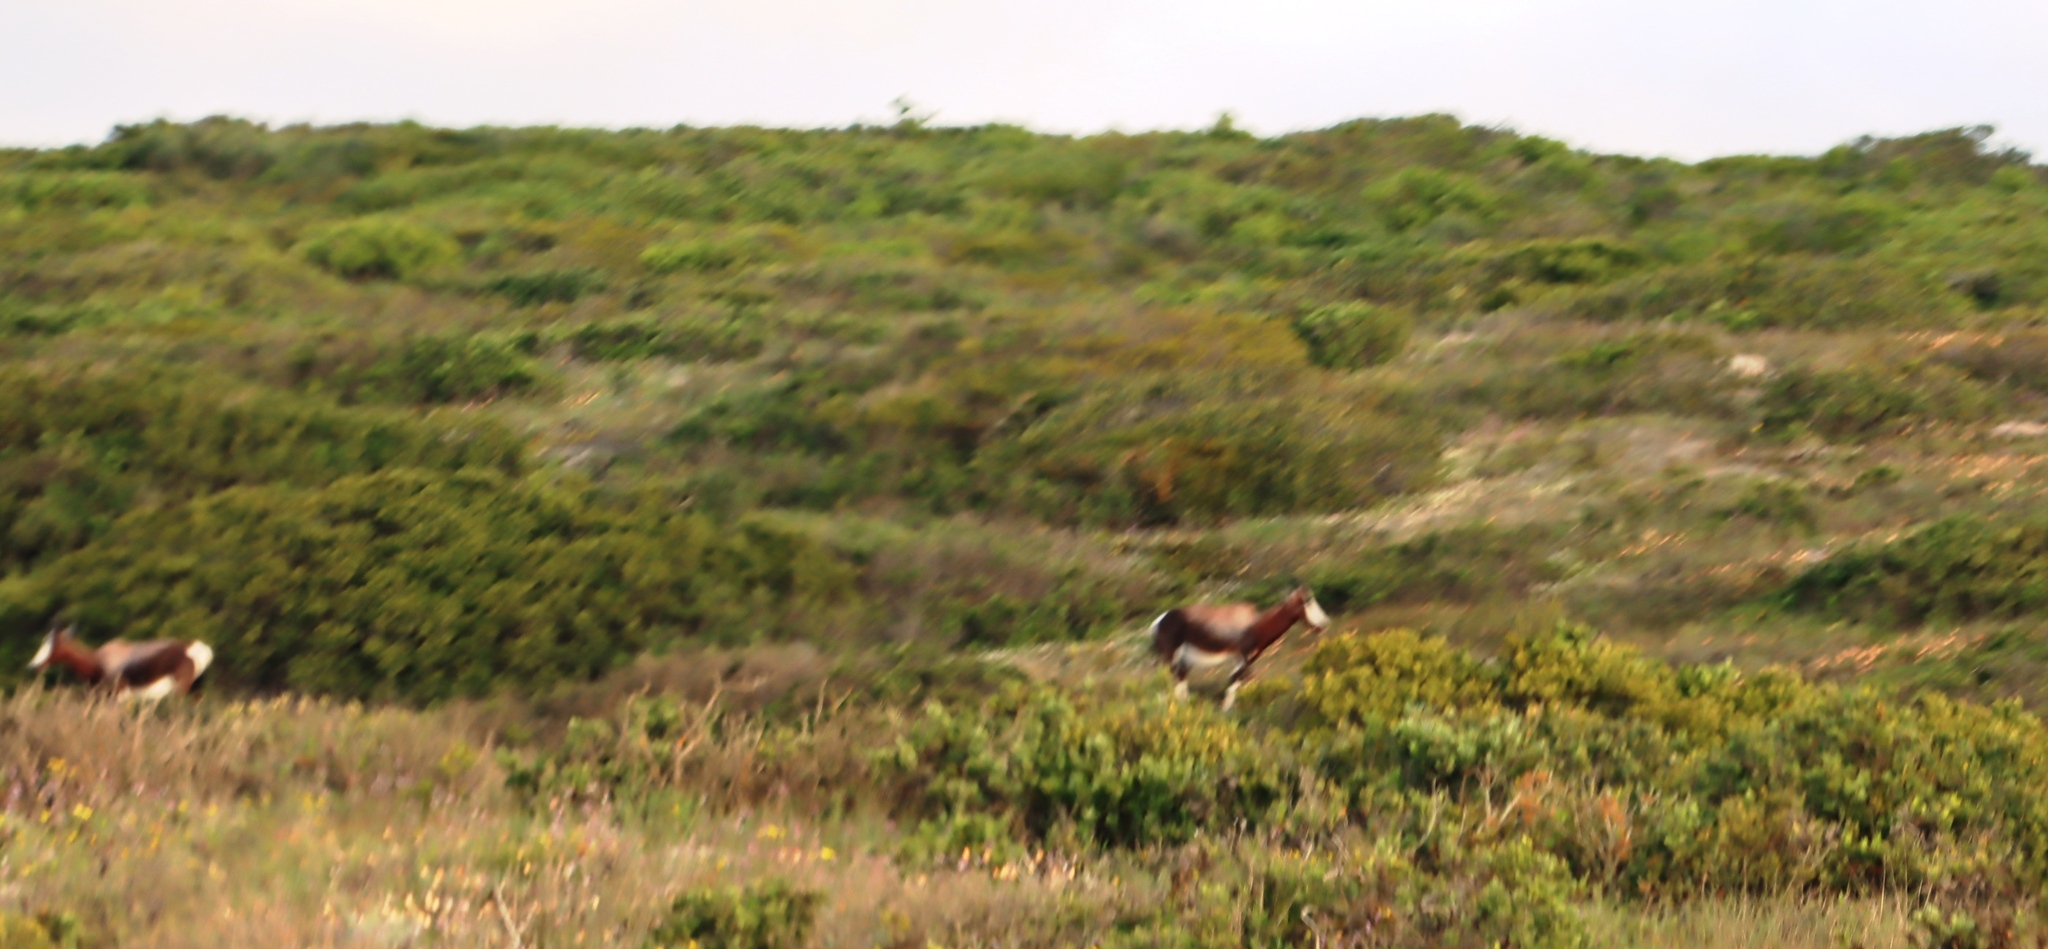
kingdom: Animalia
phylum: Chordata
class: Mammalia
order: Artiodactyla
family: Bovidae
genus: Damaliscus
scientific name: Damaliscus pygargus
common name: Bontebok
